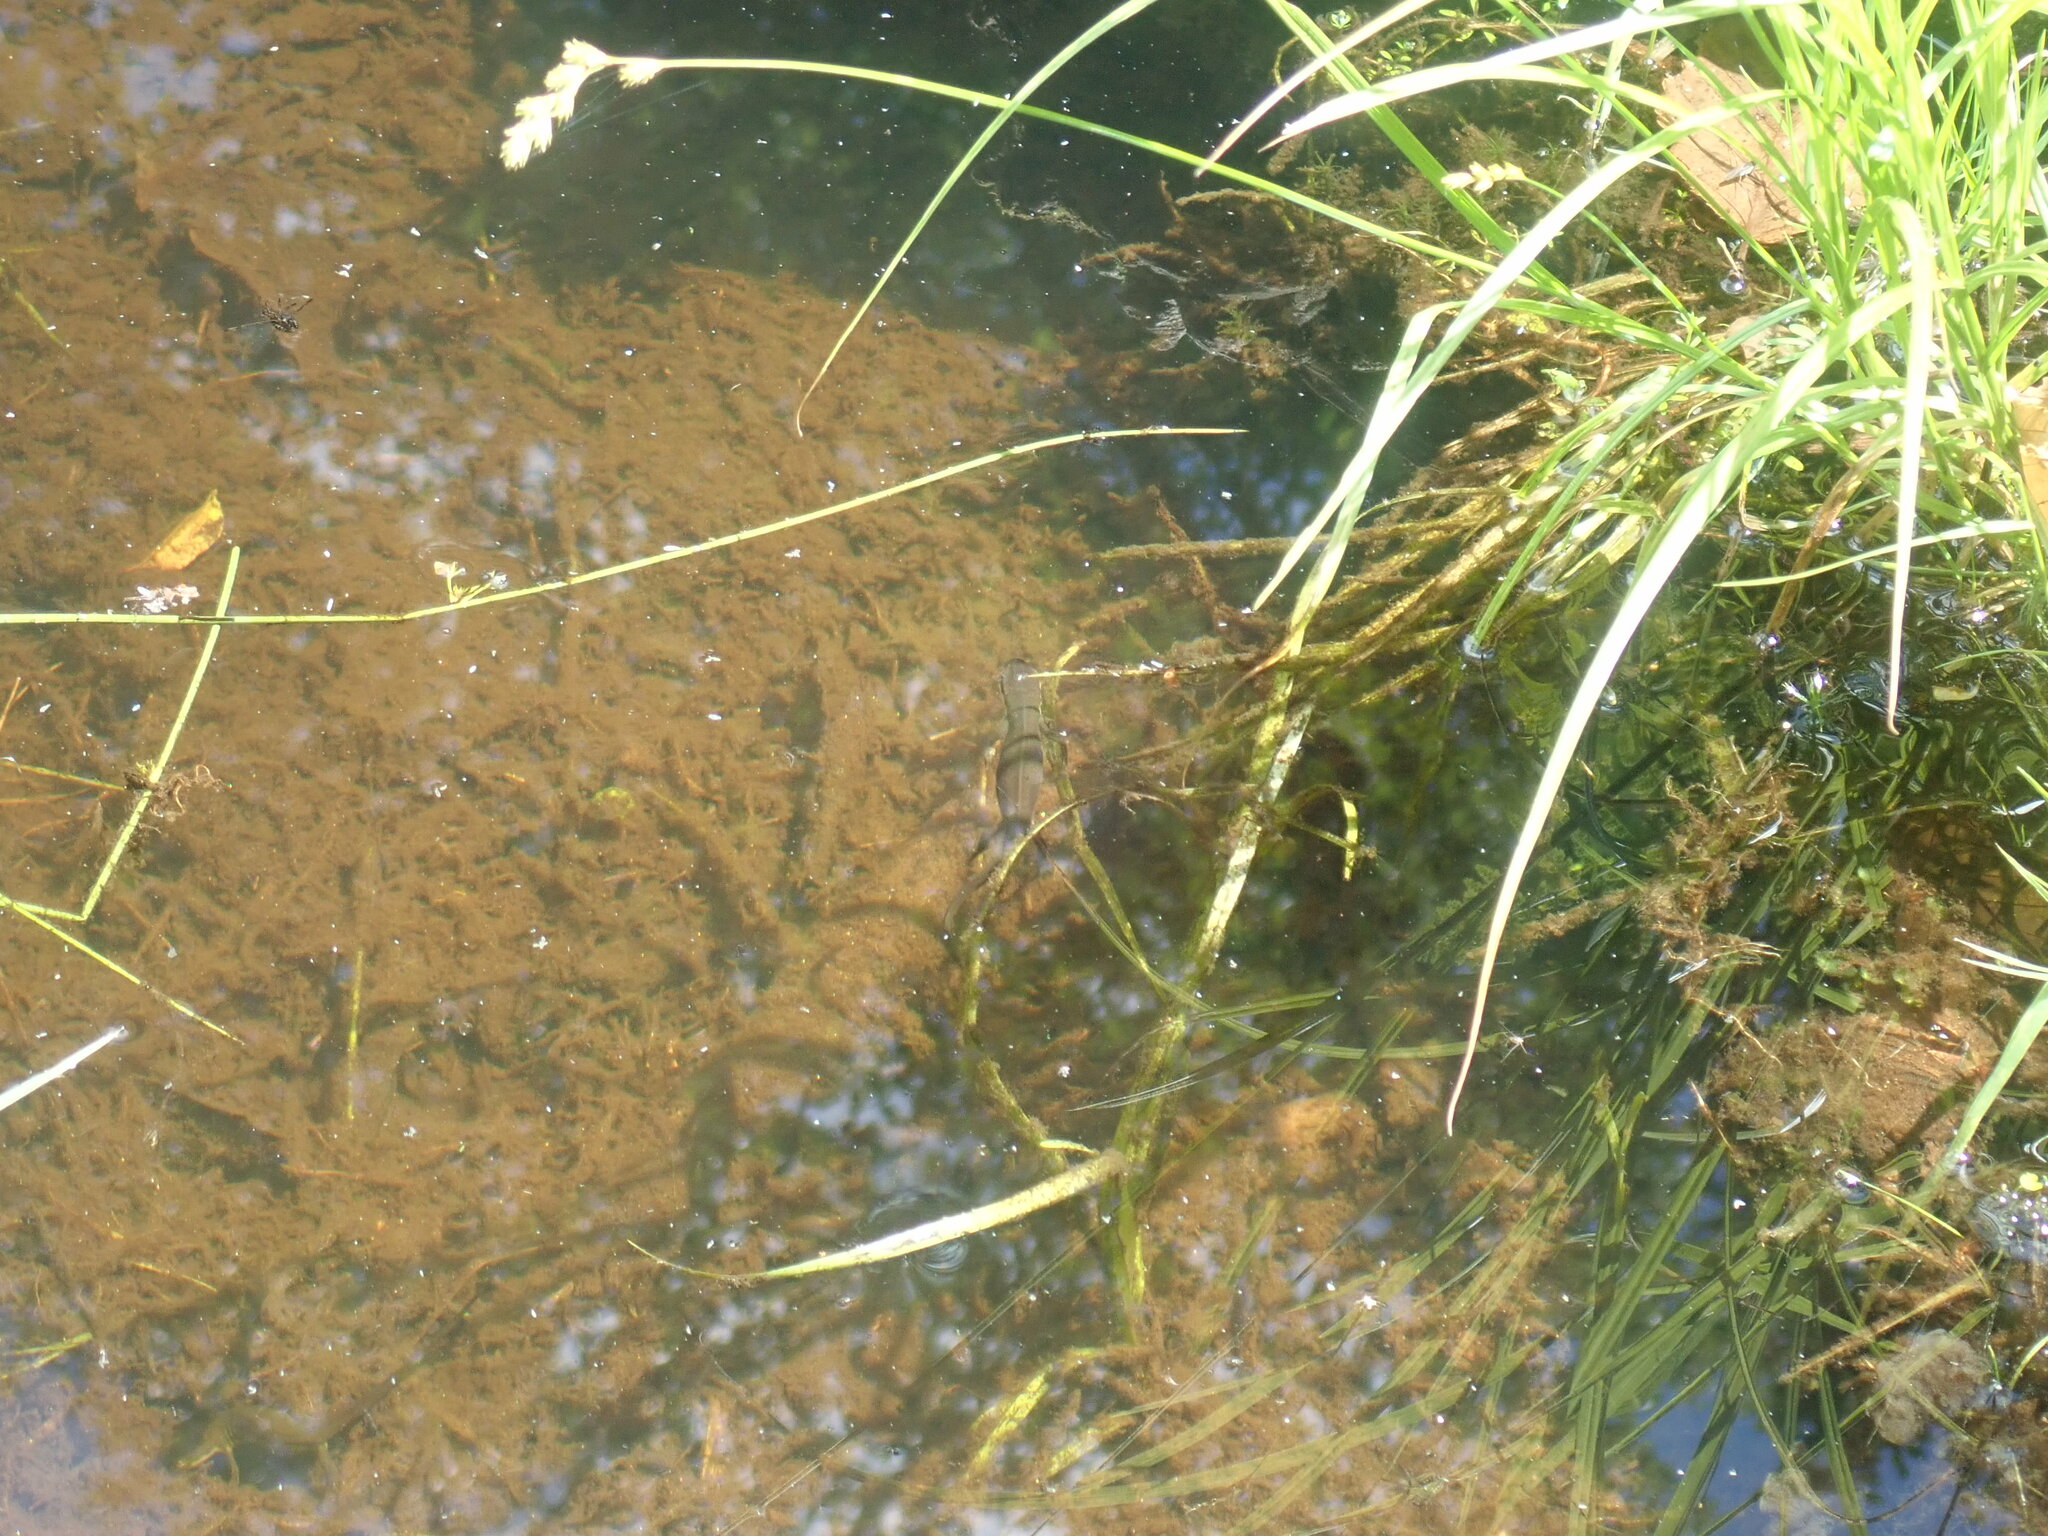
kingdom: Animalia
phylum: Chordata
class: Amphibia
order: Caudata
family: Salamandridae
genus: Notophthalmus
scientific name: Notophthalmus viridescens
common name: Eastern newt
